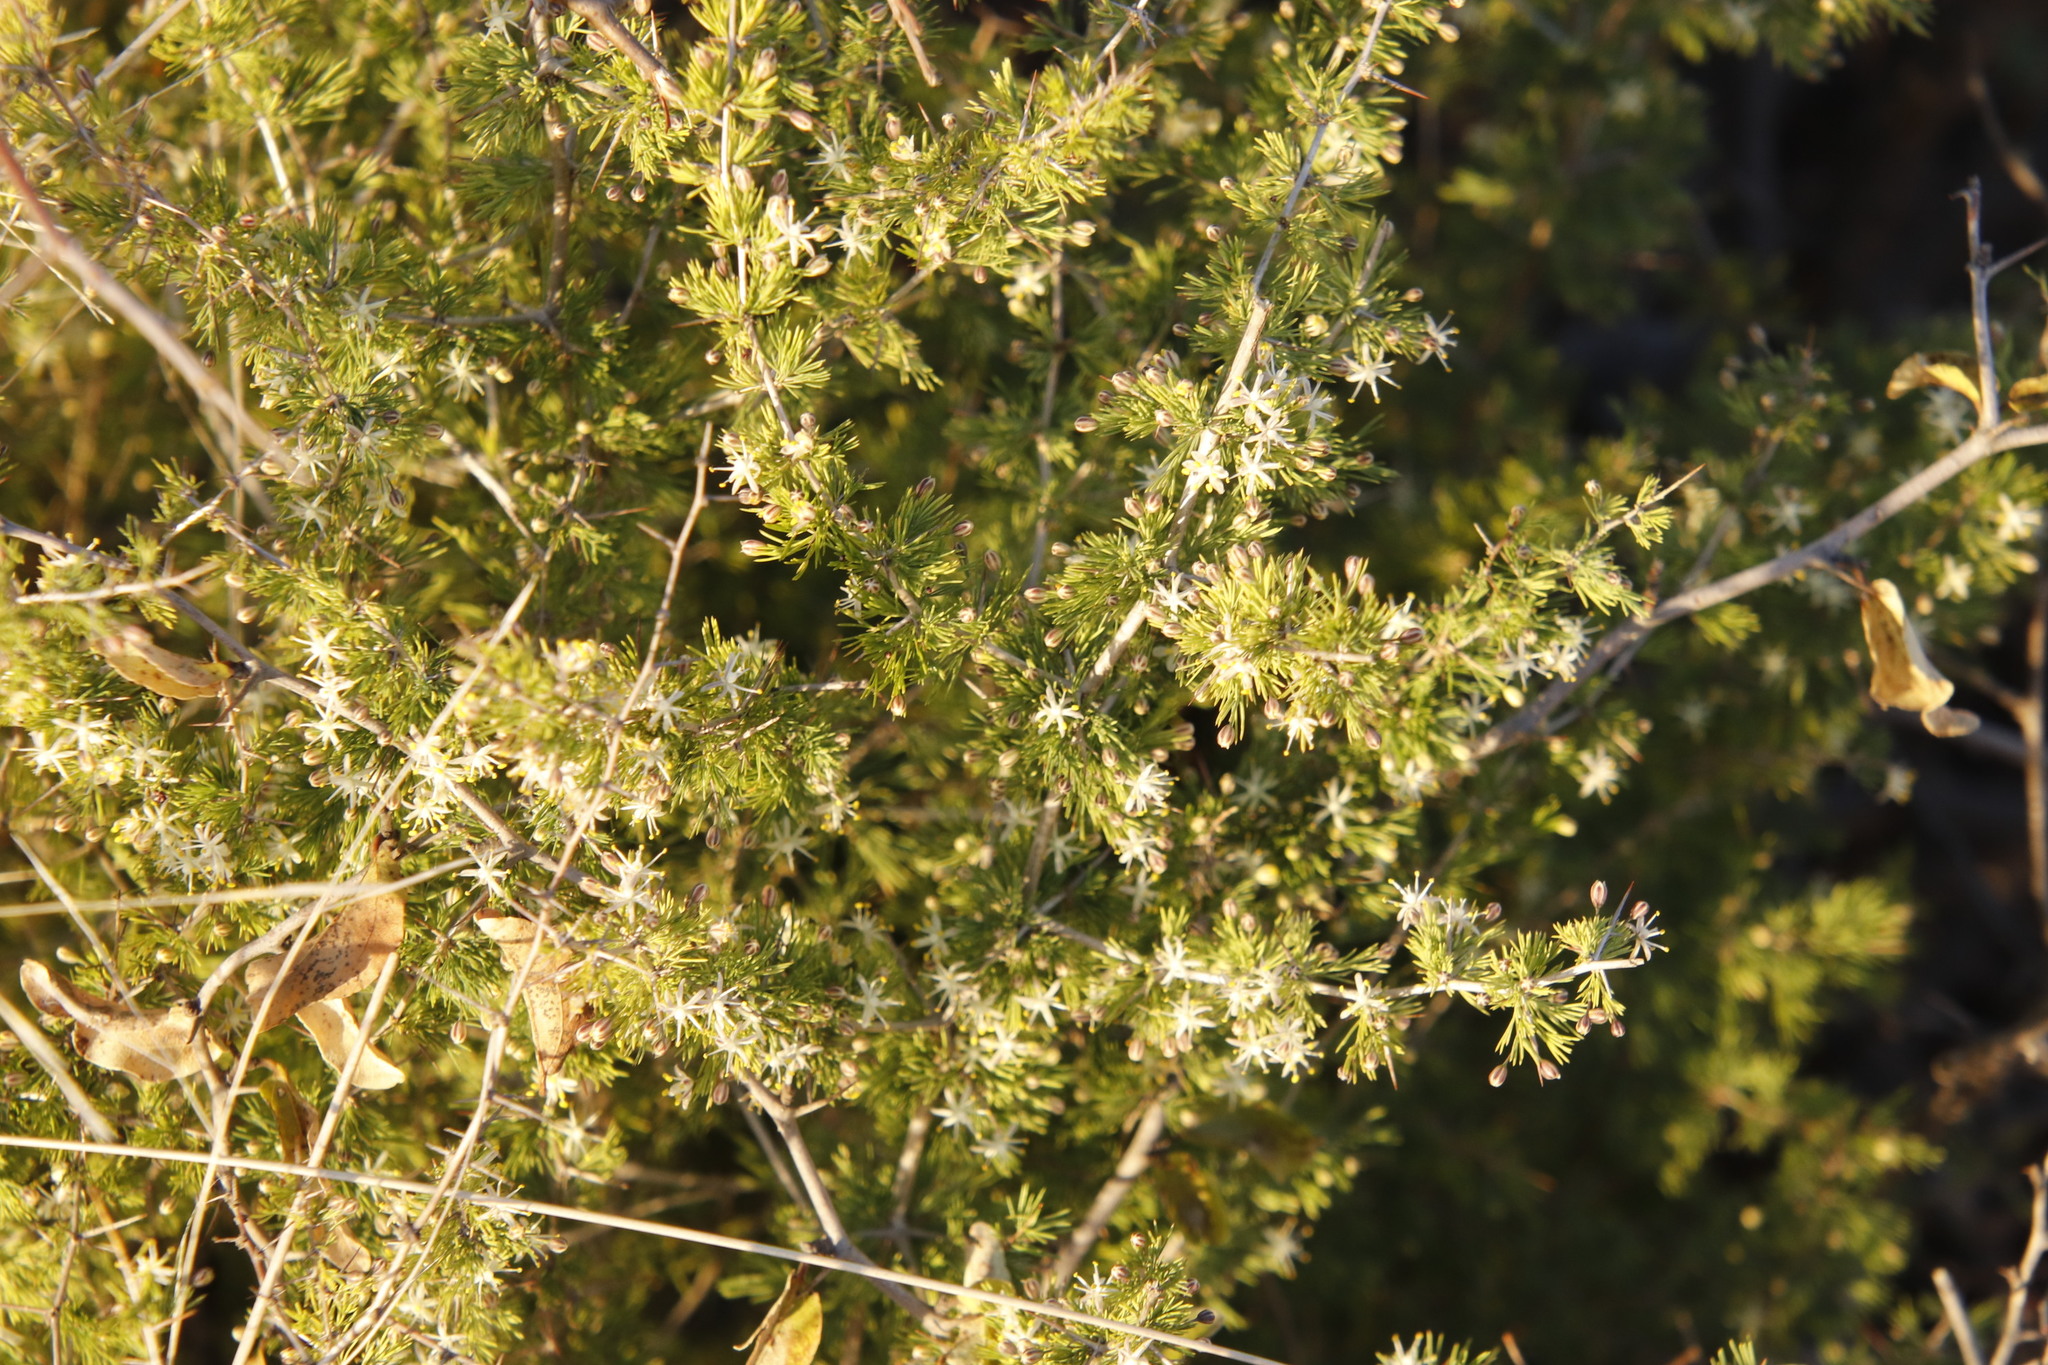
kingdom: Plantae
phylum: Tracheophyta
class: Liliopsida
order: Asparagales
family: Asparagaceae
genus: Asparagus
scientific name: Asparagus suaveolens
